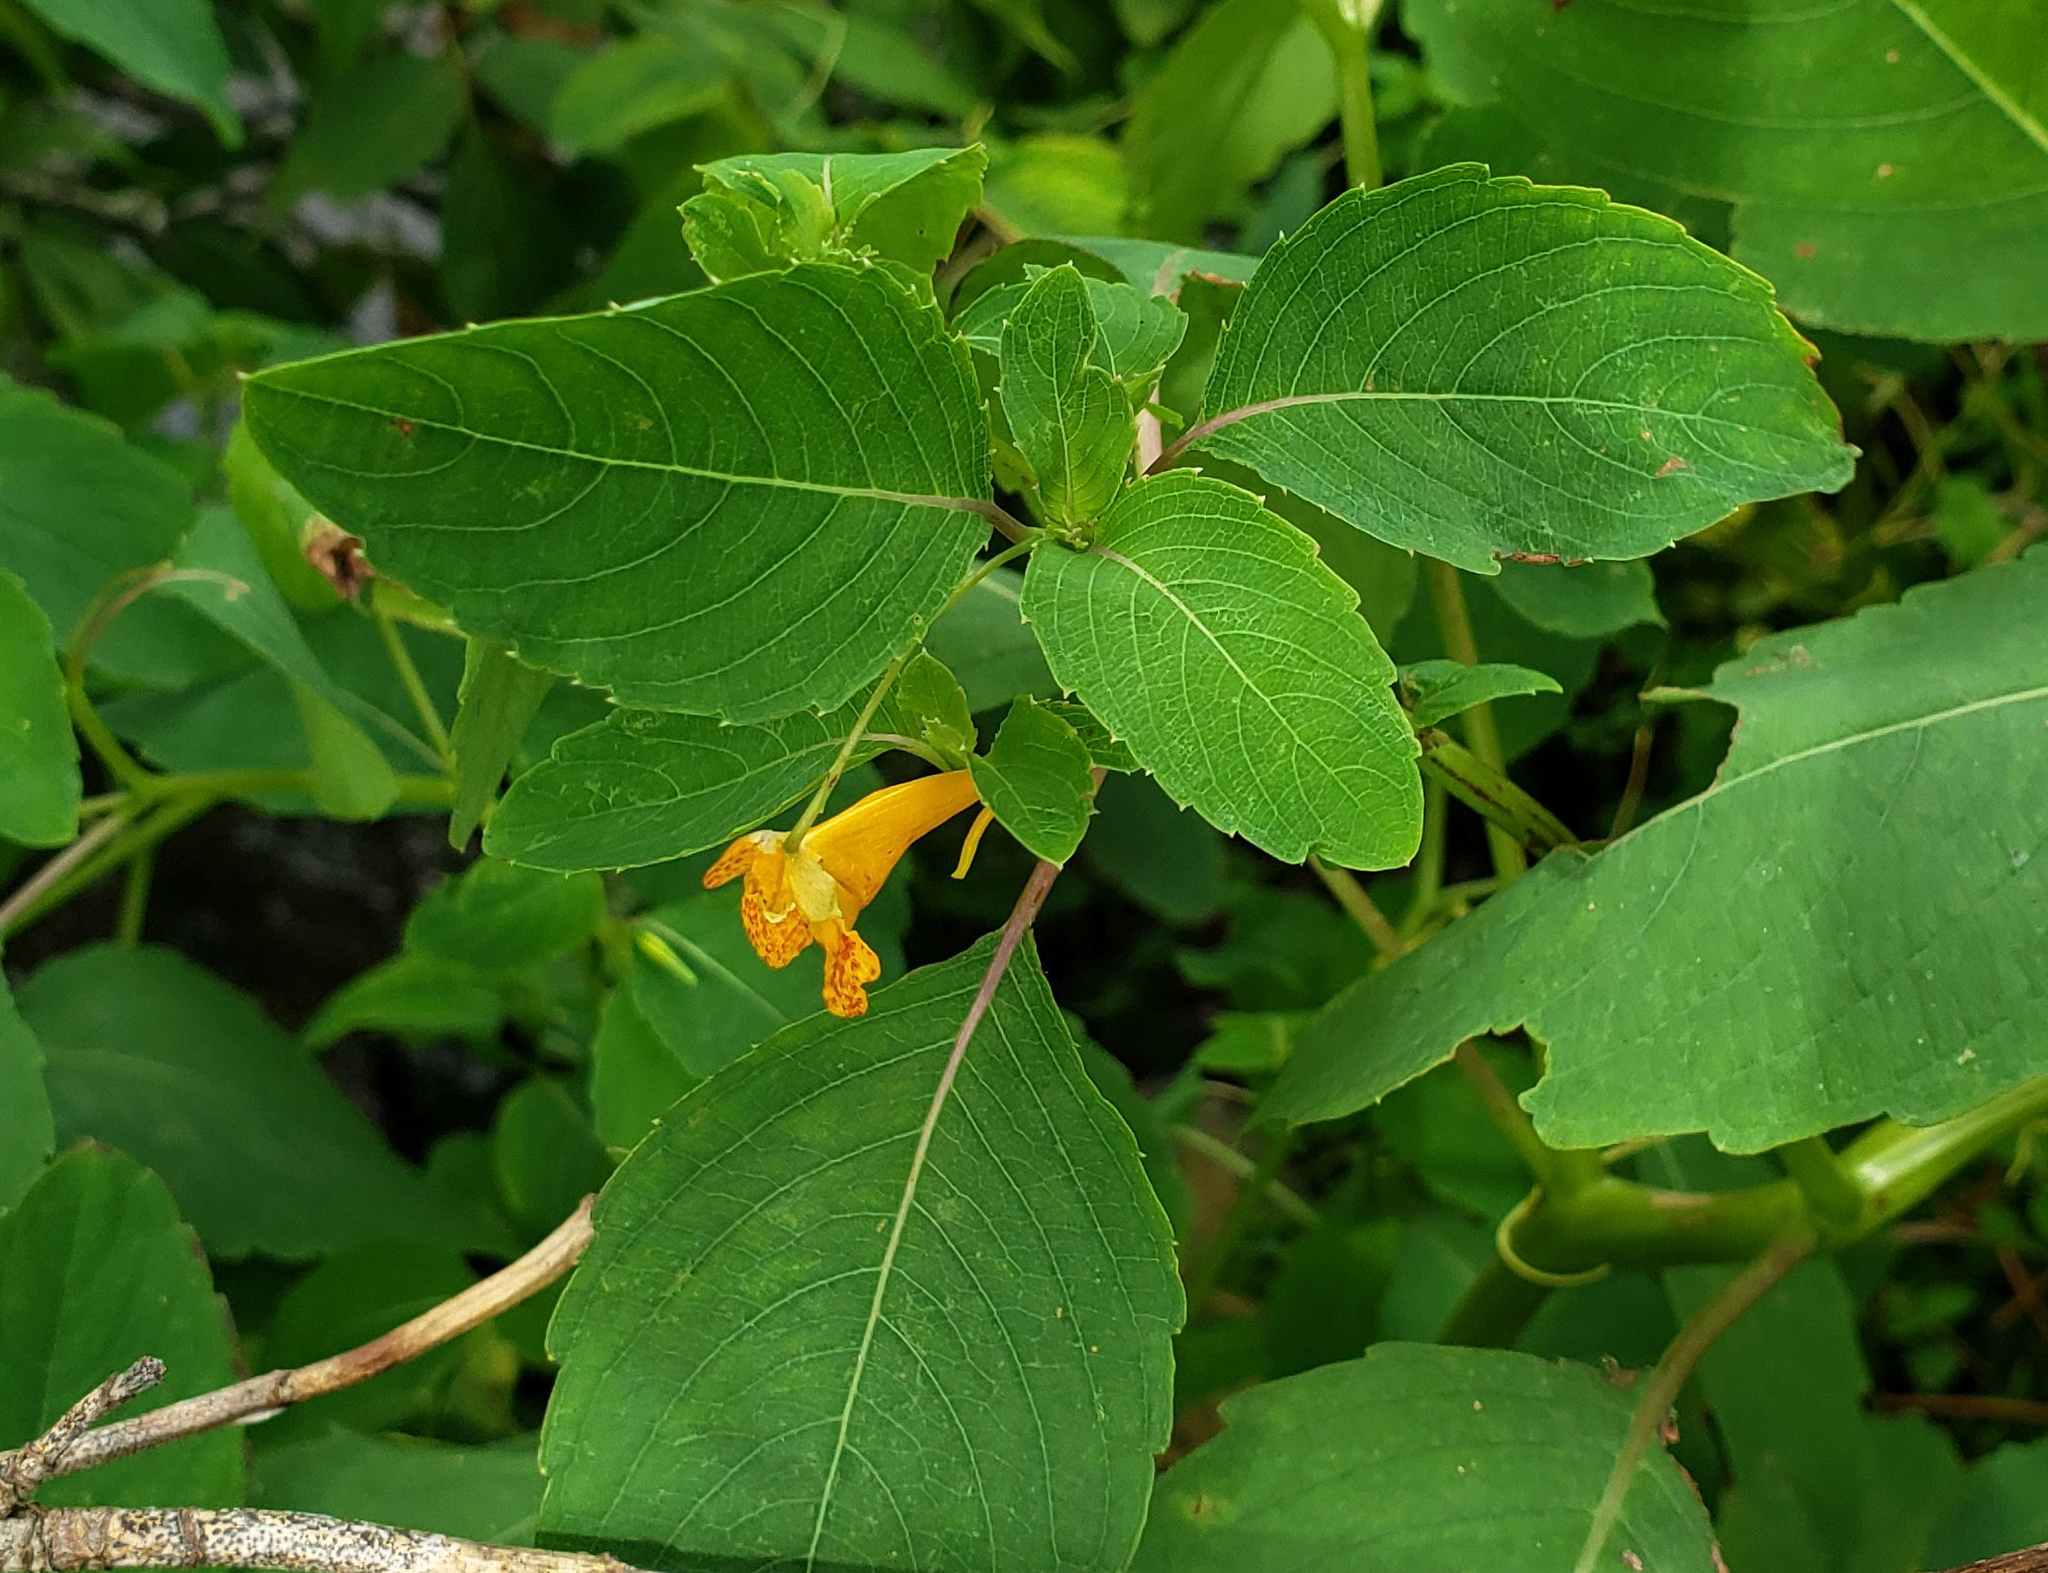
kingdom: Plantae
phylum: Tracheophyta
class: Magnoliopsida
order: Ericales
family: Balsaminaceae
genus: Impatiens
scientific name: Impatiens capensis
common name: Orange balsam
